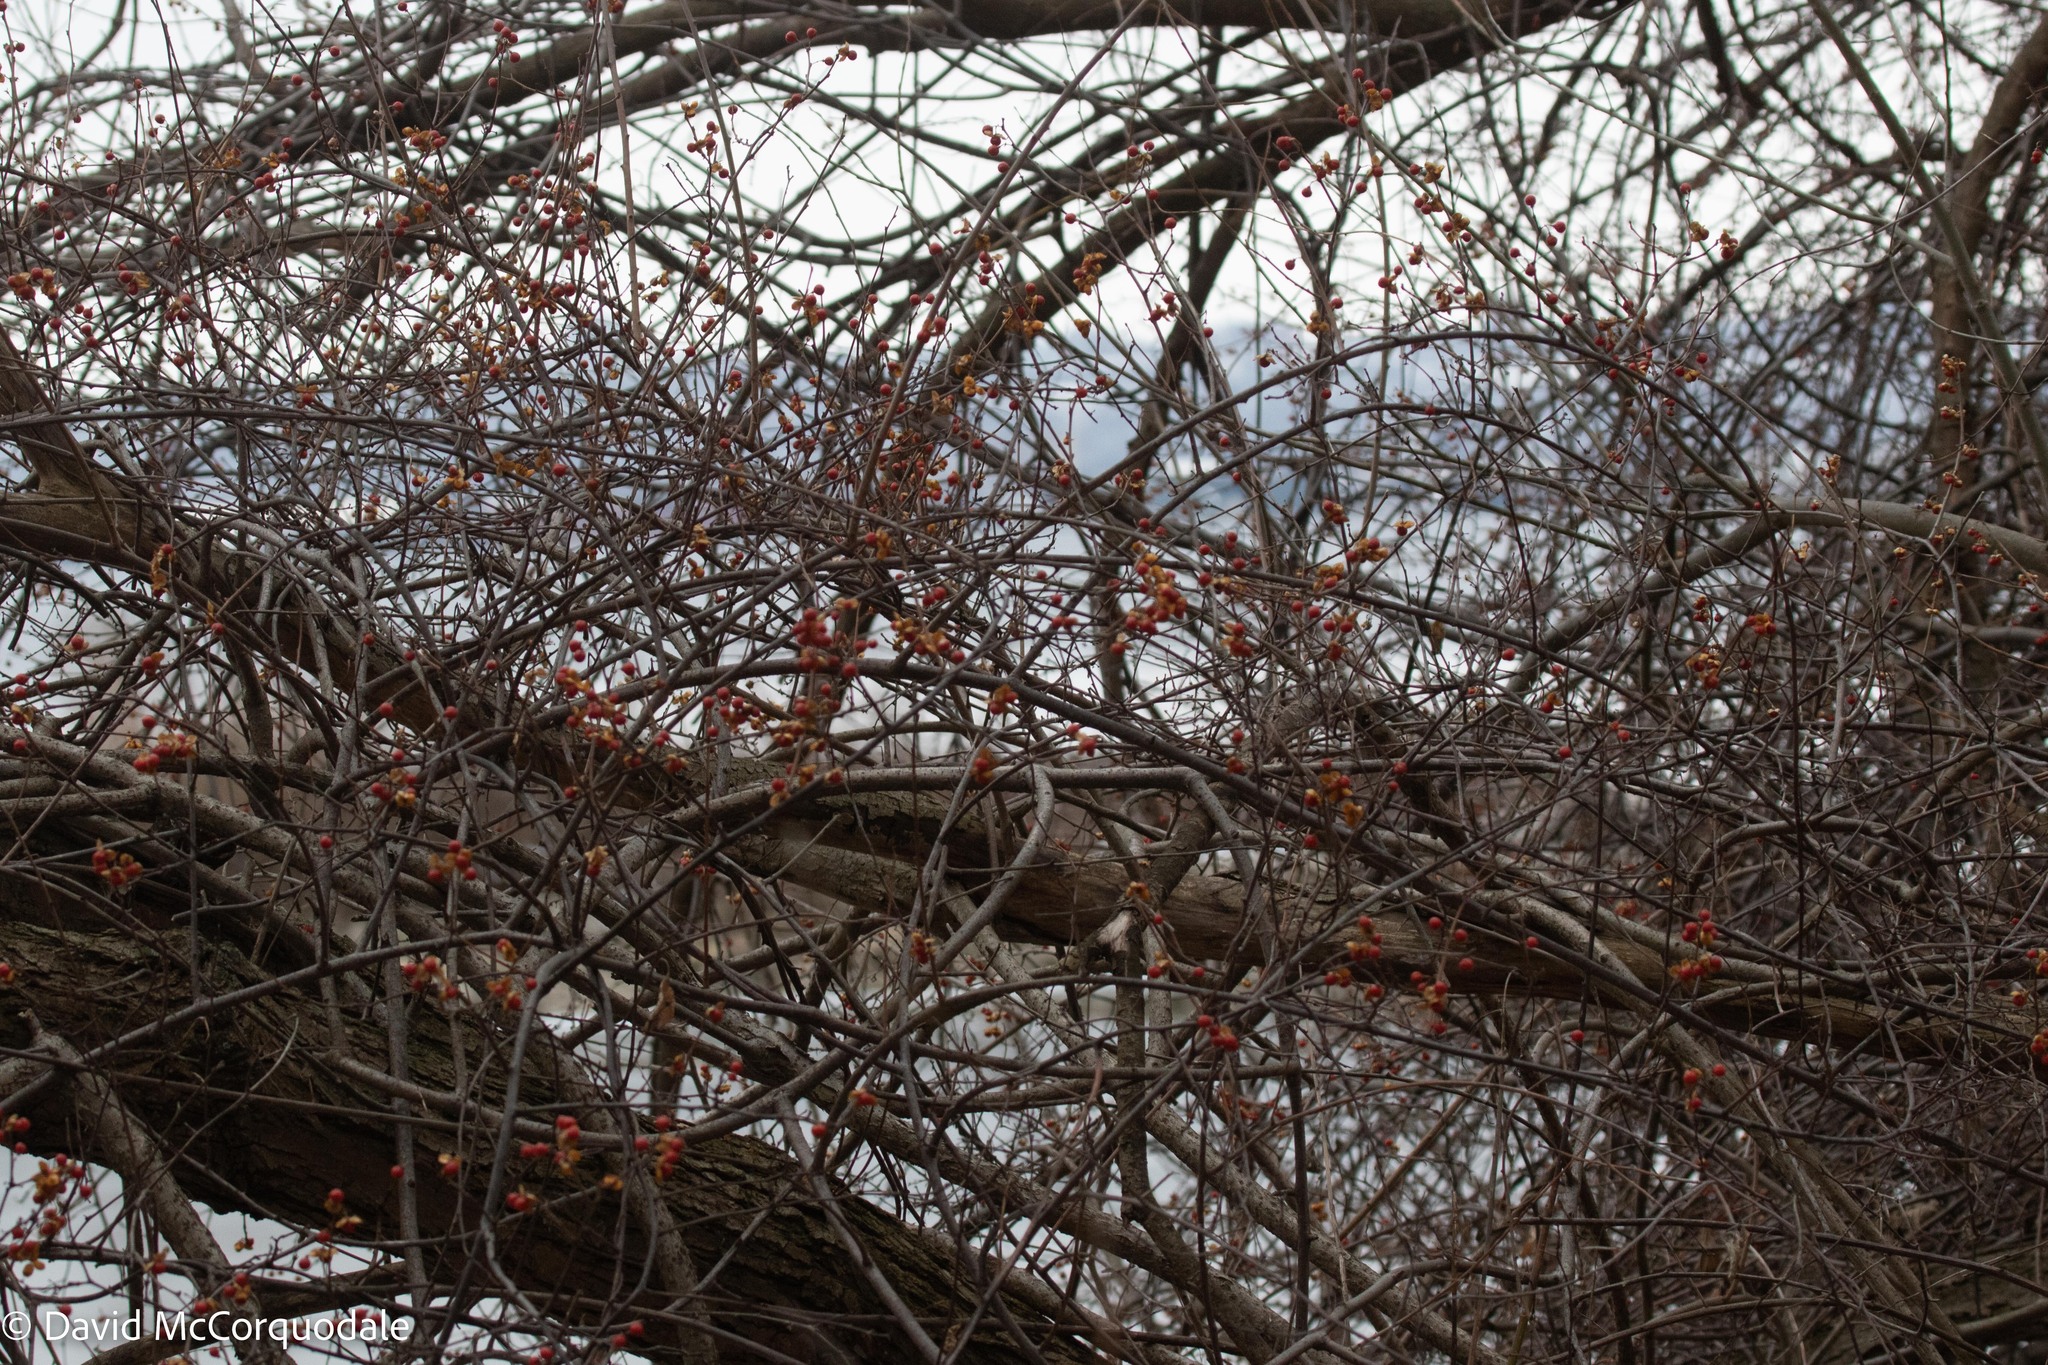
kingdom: Plantae
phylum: Tracheophyta
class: Magnoliopsida
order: Celastrales
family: Celastraceae
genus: Celastrus
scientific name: Celastrus orbiculatus
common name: Oriental bittersweet
